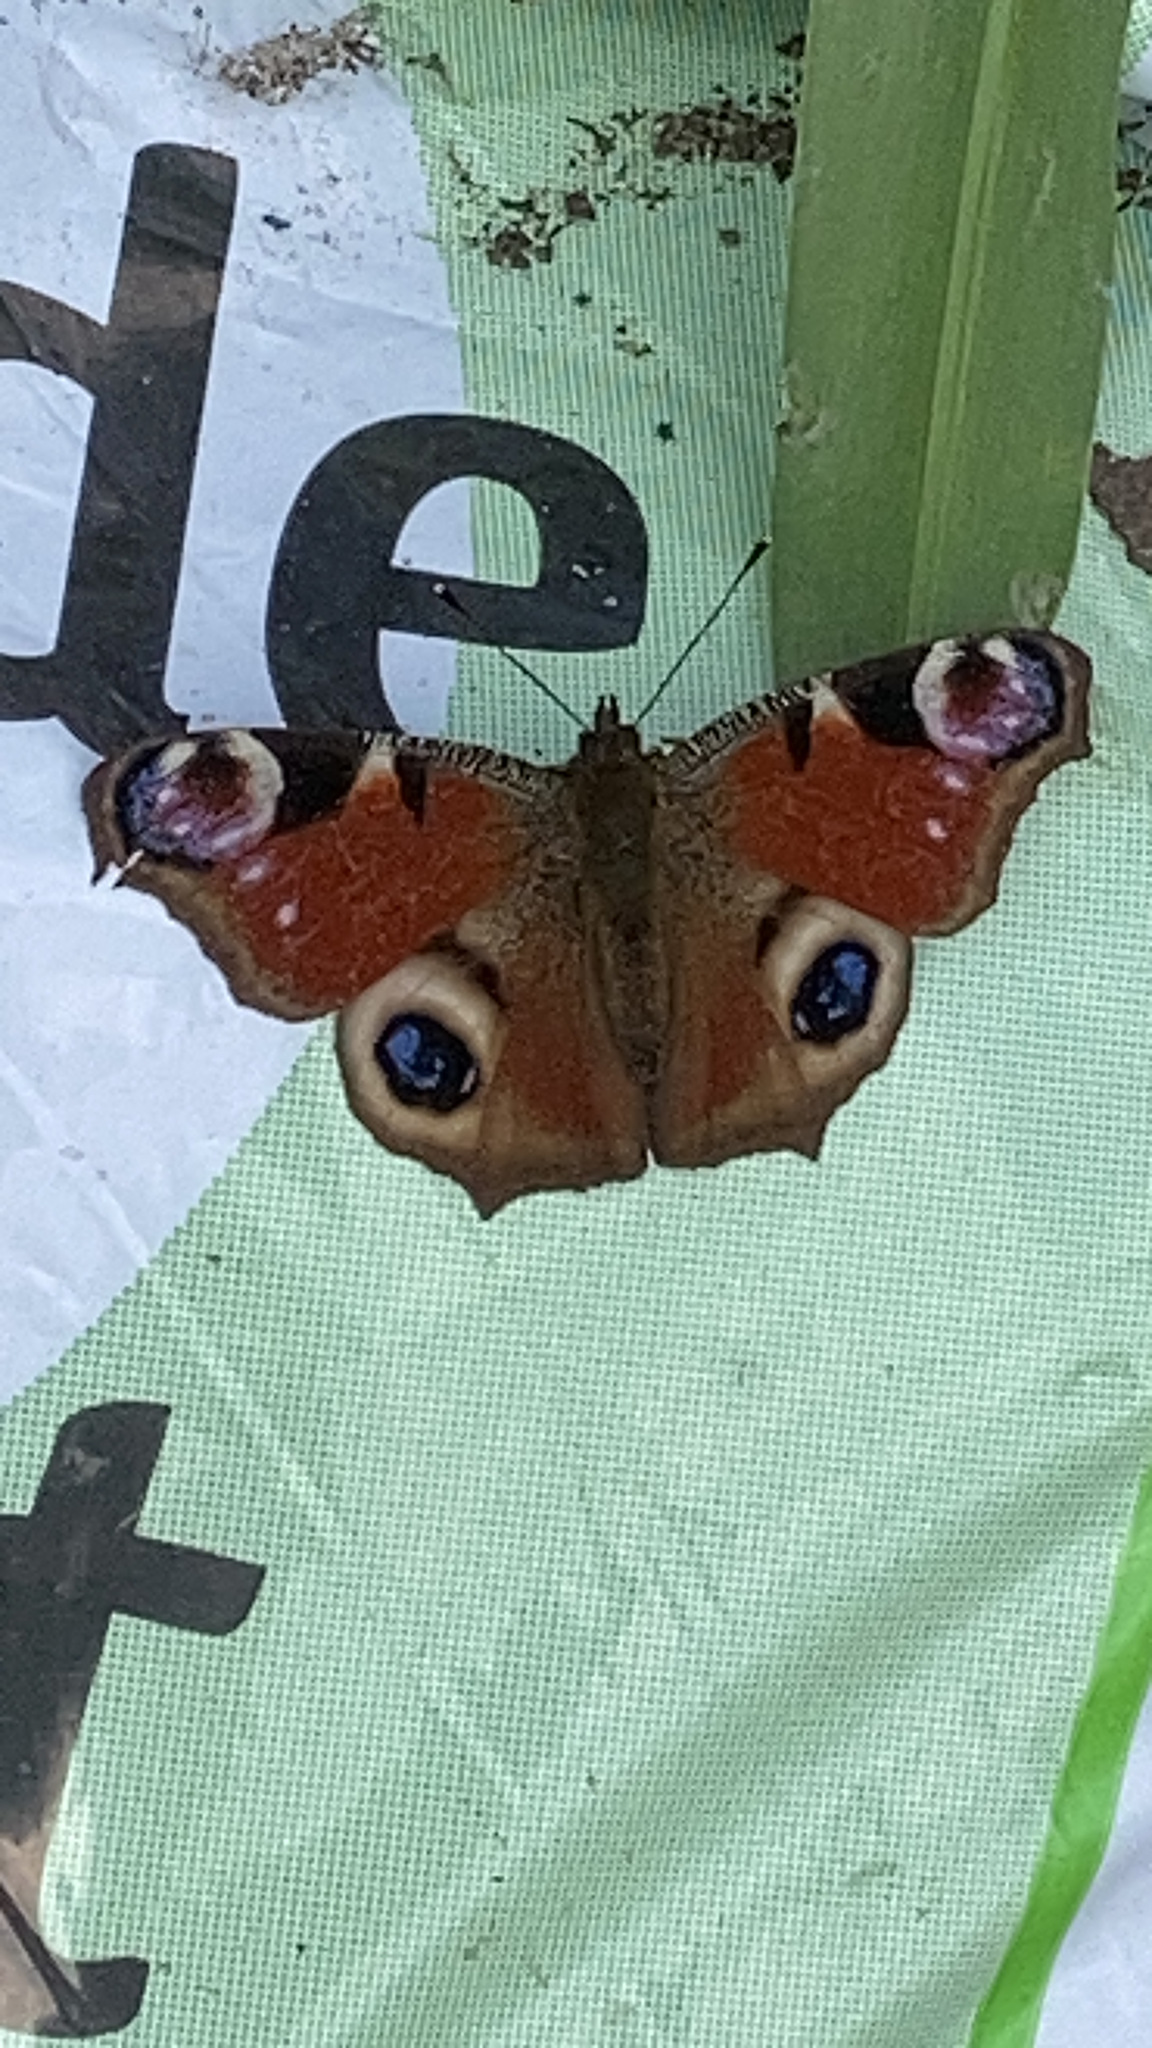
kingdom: Animalia
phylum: Arthropoda
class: Insecta
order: Lepidoptera
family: Nymphalidae
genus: Aglais
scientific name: Aglais io
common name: Peacock
